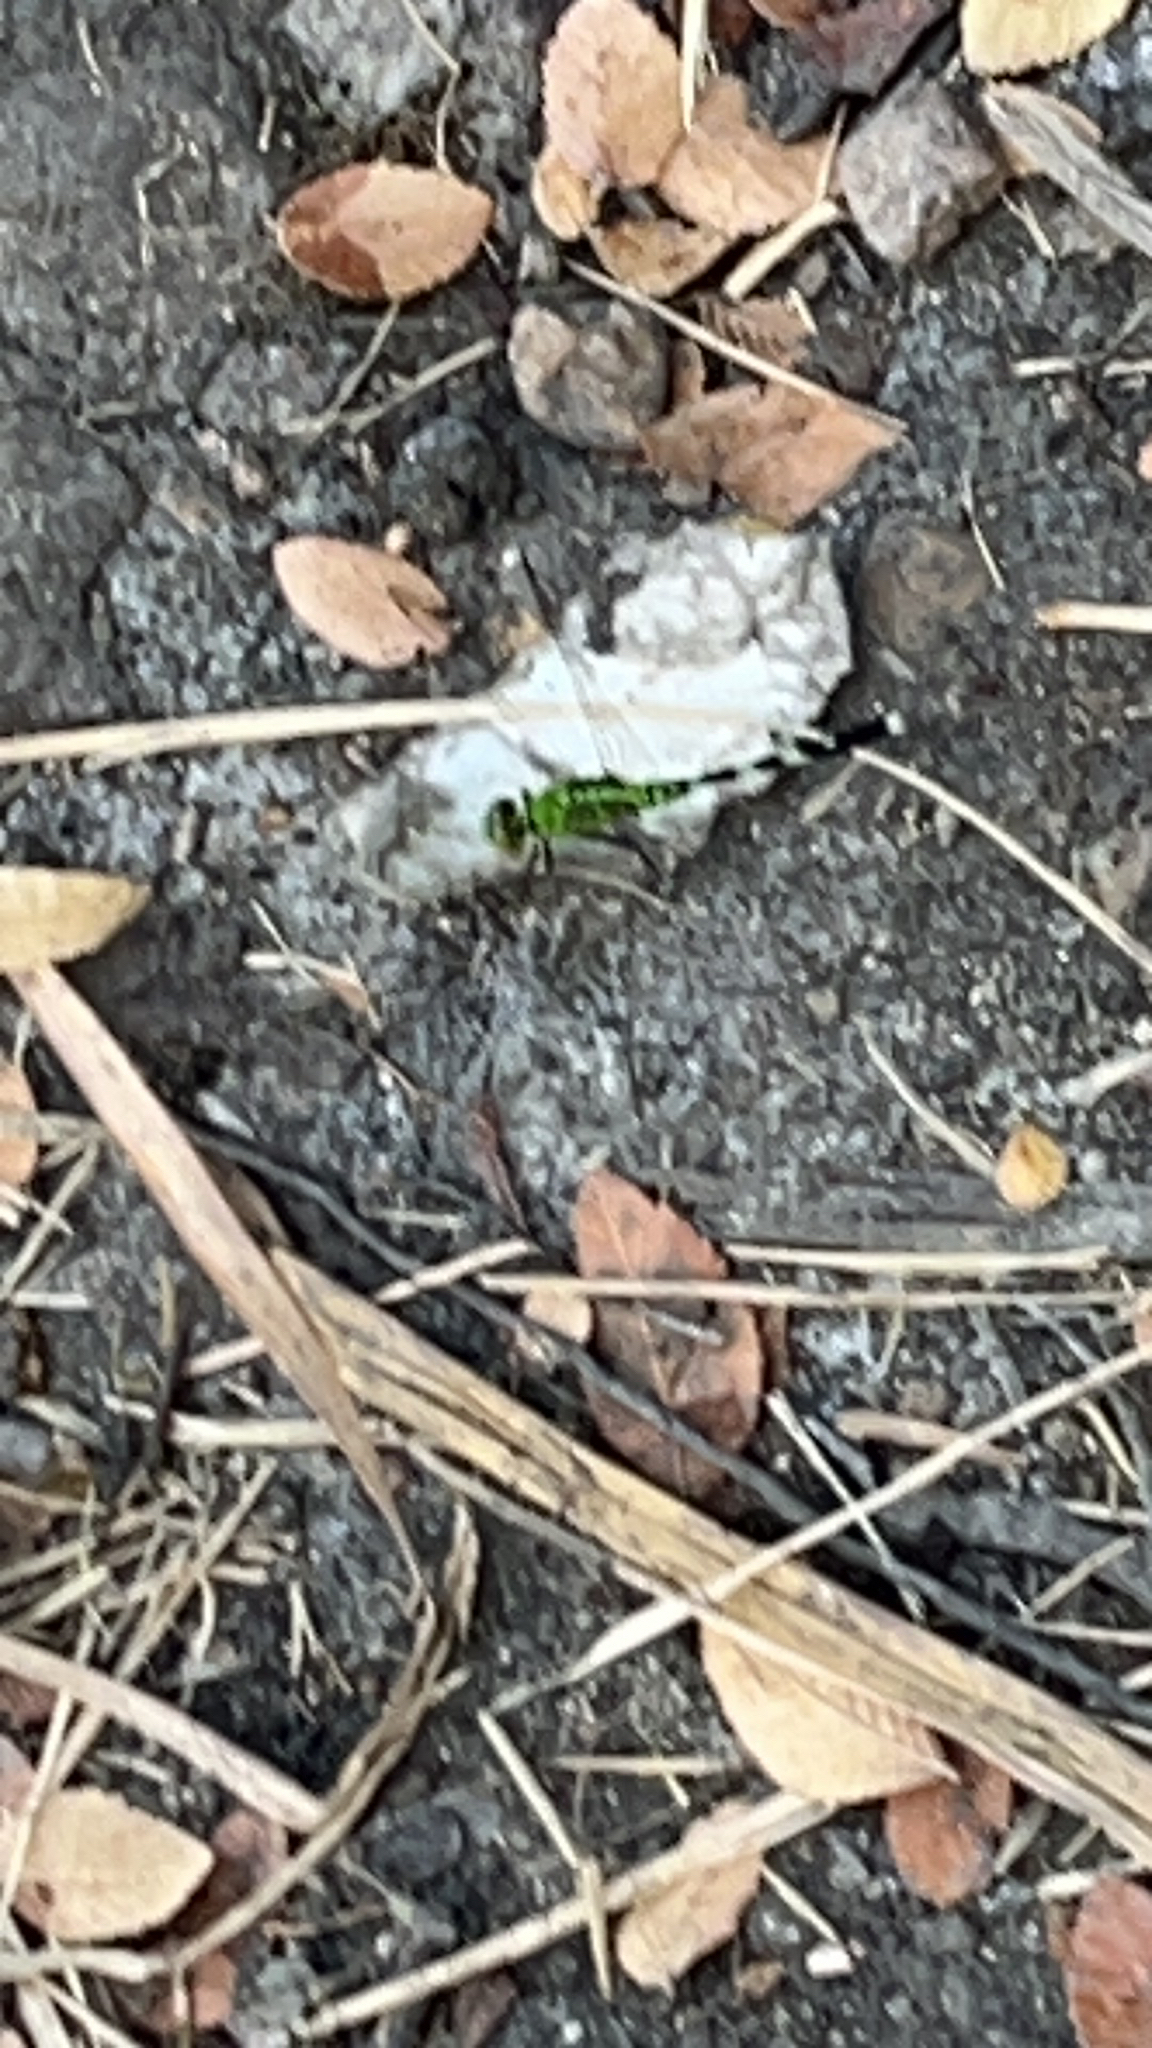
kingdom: Animalia
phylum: Arthropoda
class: Insecta
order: Odonata
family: Libellulidae
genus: Erythemis
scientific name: Erythemis simplicicollis
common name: Eastern pondhawk
